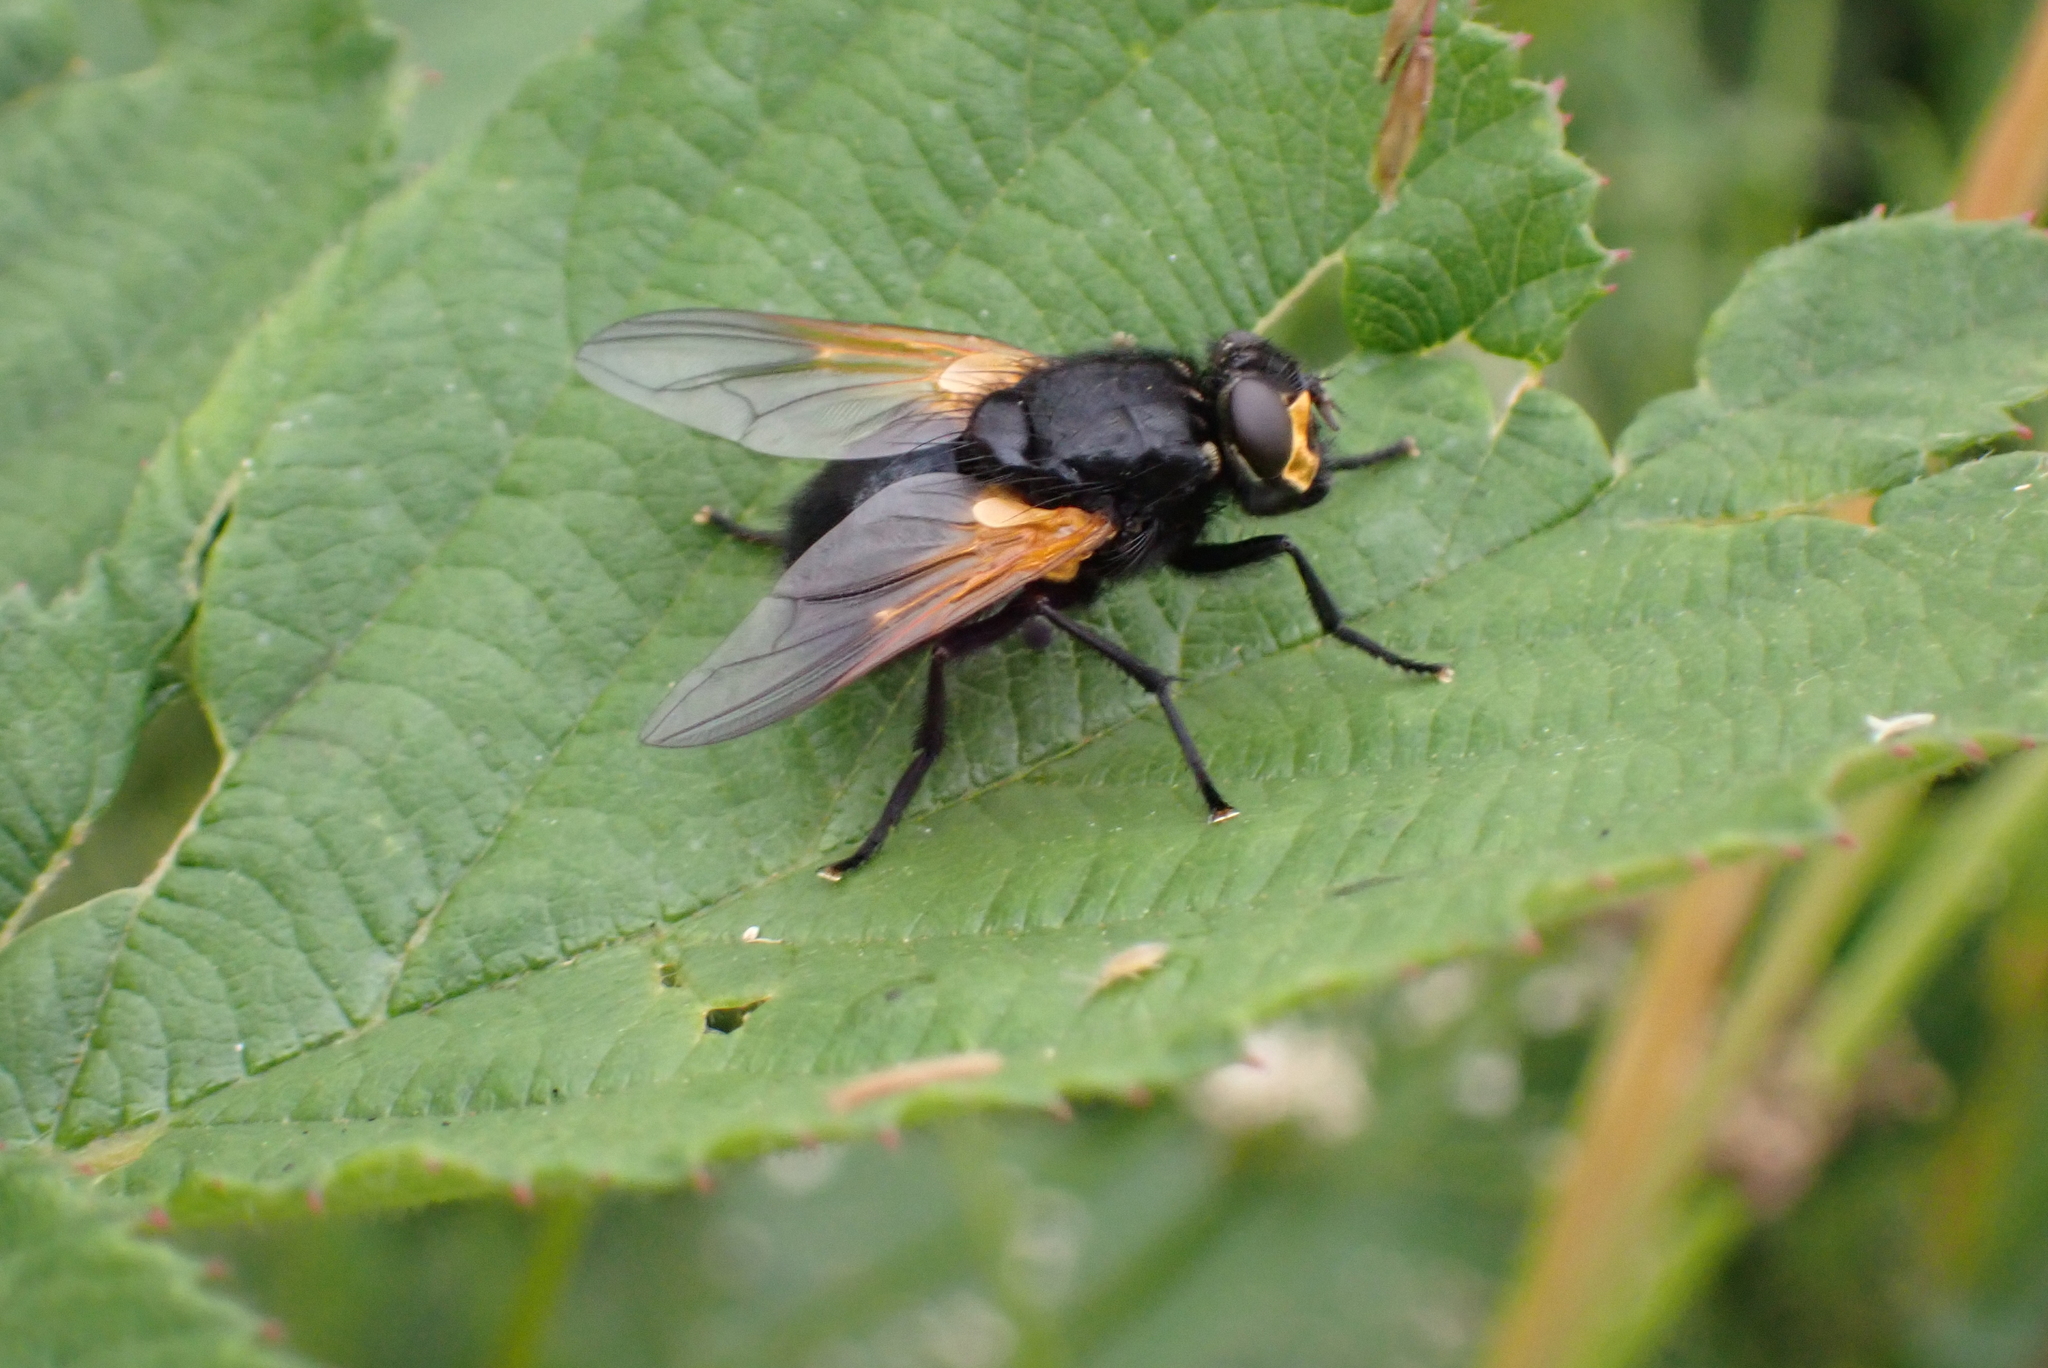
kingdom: Animalia
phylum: Arthropoda
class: Insecta
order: Diptera
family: Muscidae
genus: Mesembrina
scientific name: Mesembrina meridiana
